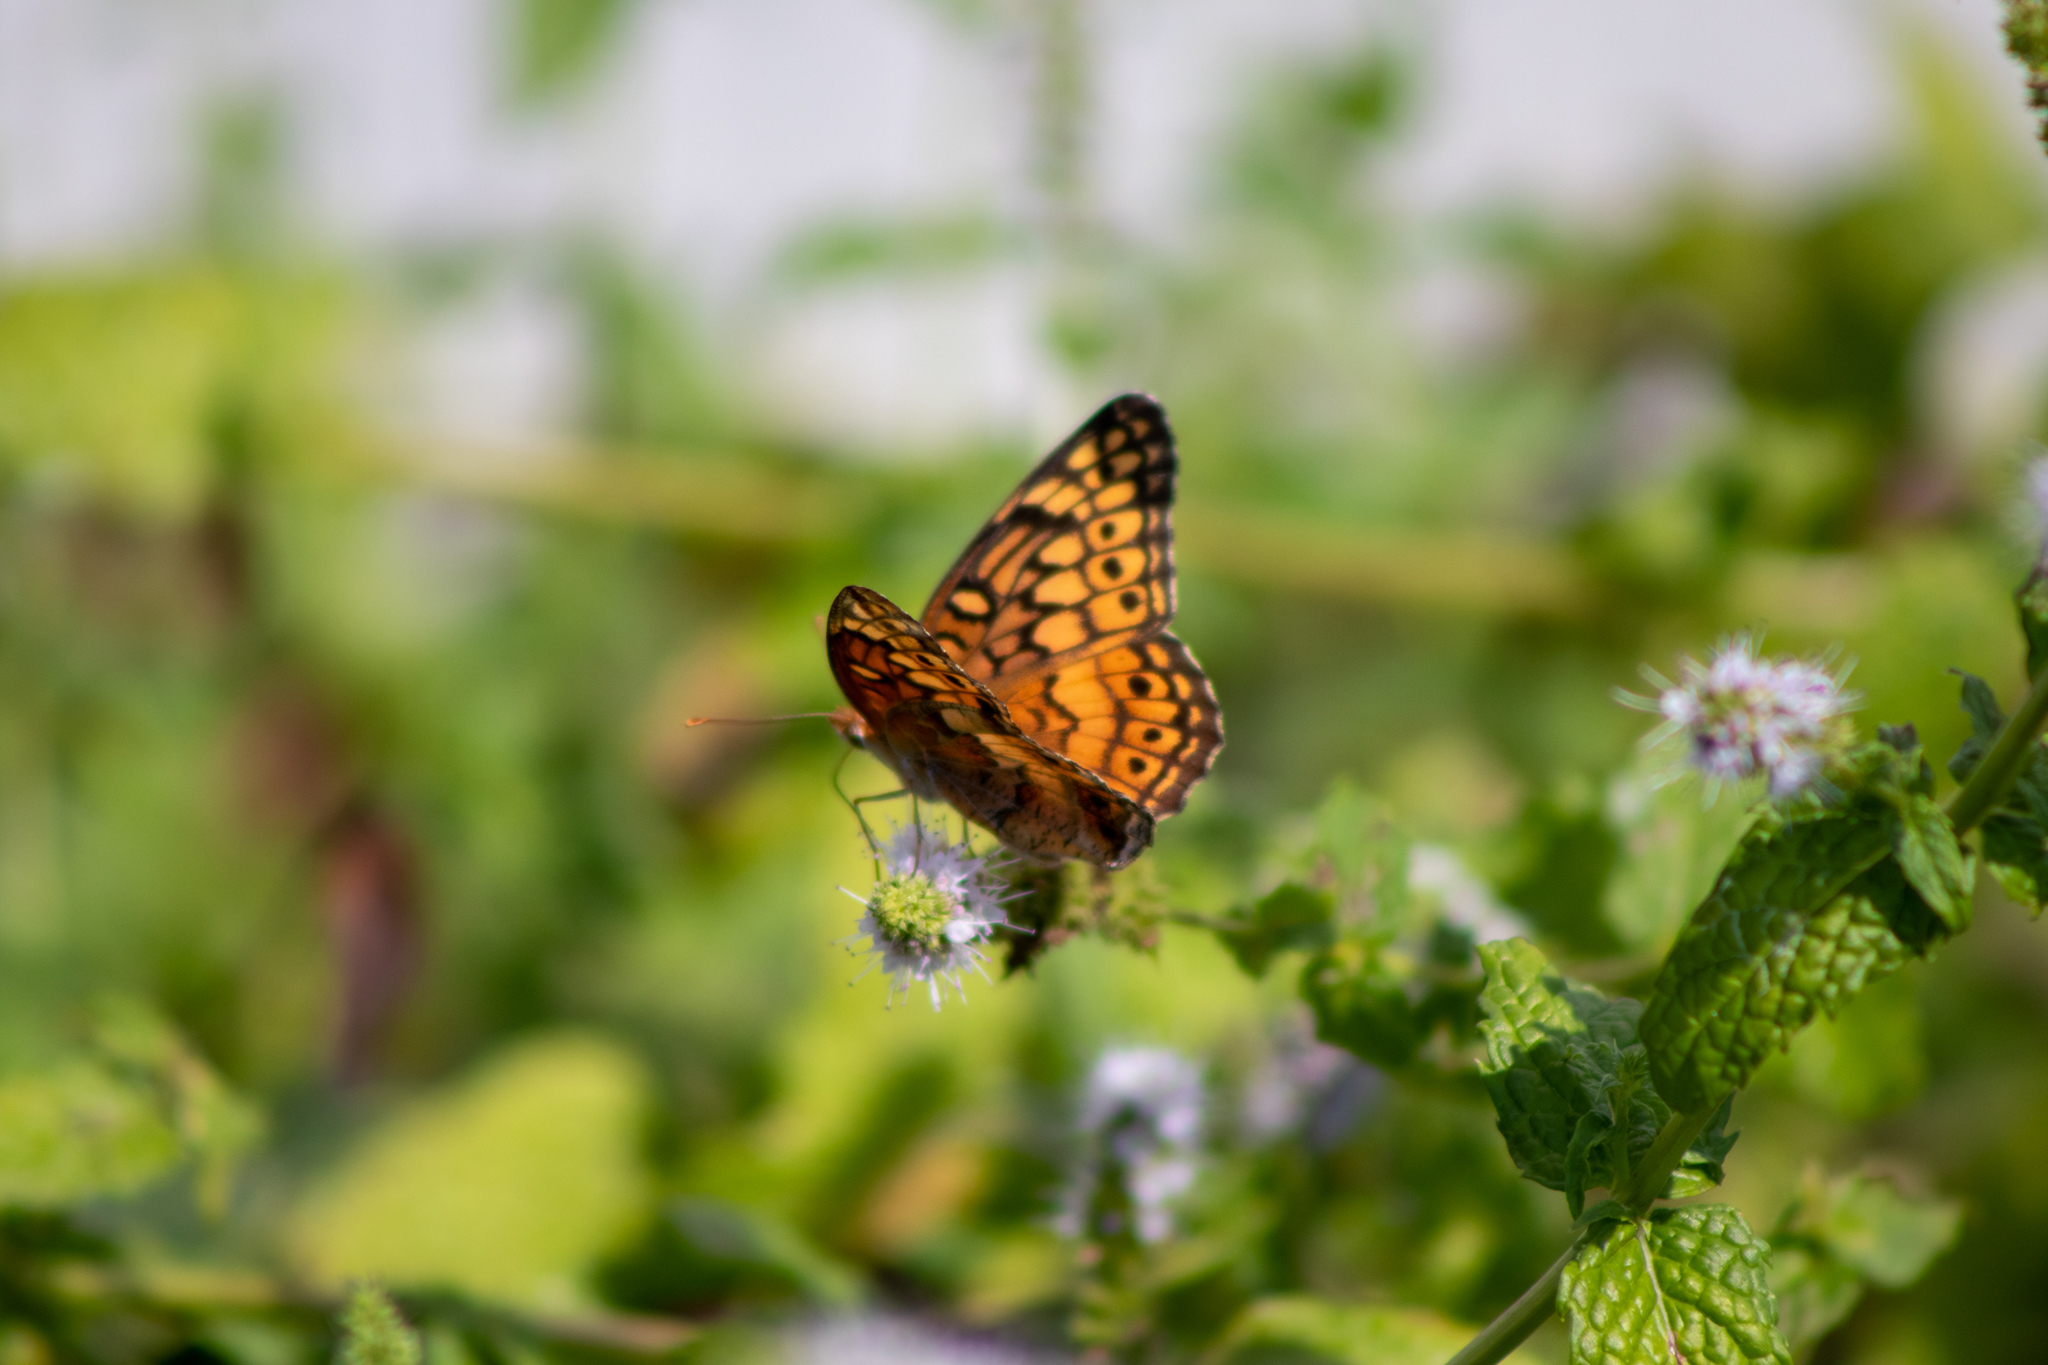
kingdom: Animalia
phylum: Arthropoda
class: Insecta
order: Lepidoptera
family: Nymphalidae
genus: Euptoieta
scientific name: Euptoieta claudia
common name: Variegated fritillary
